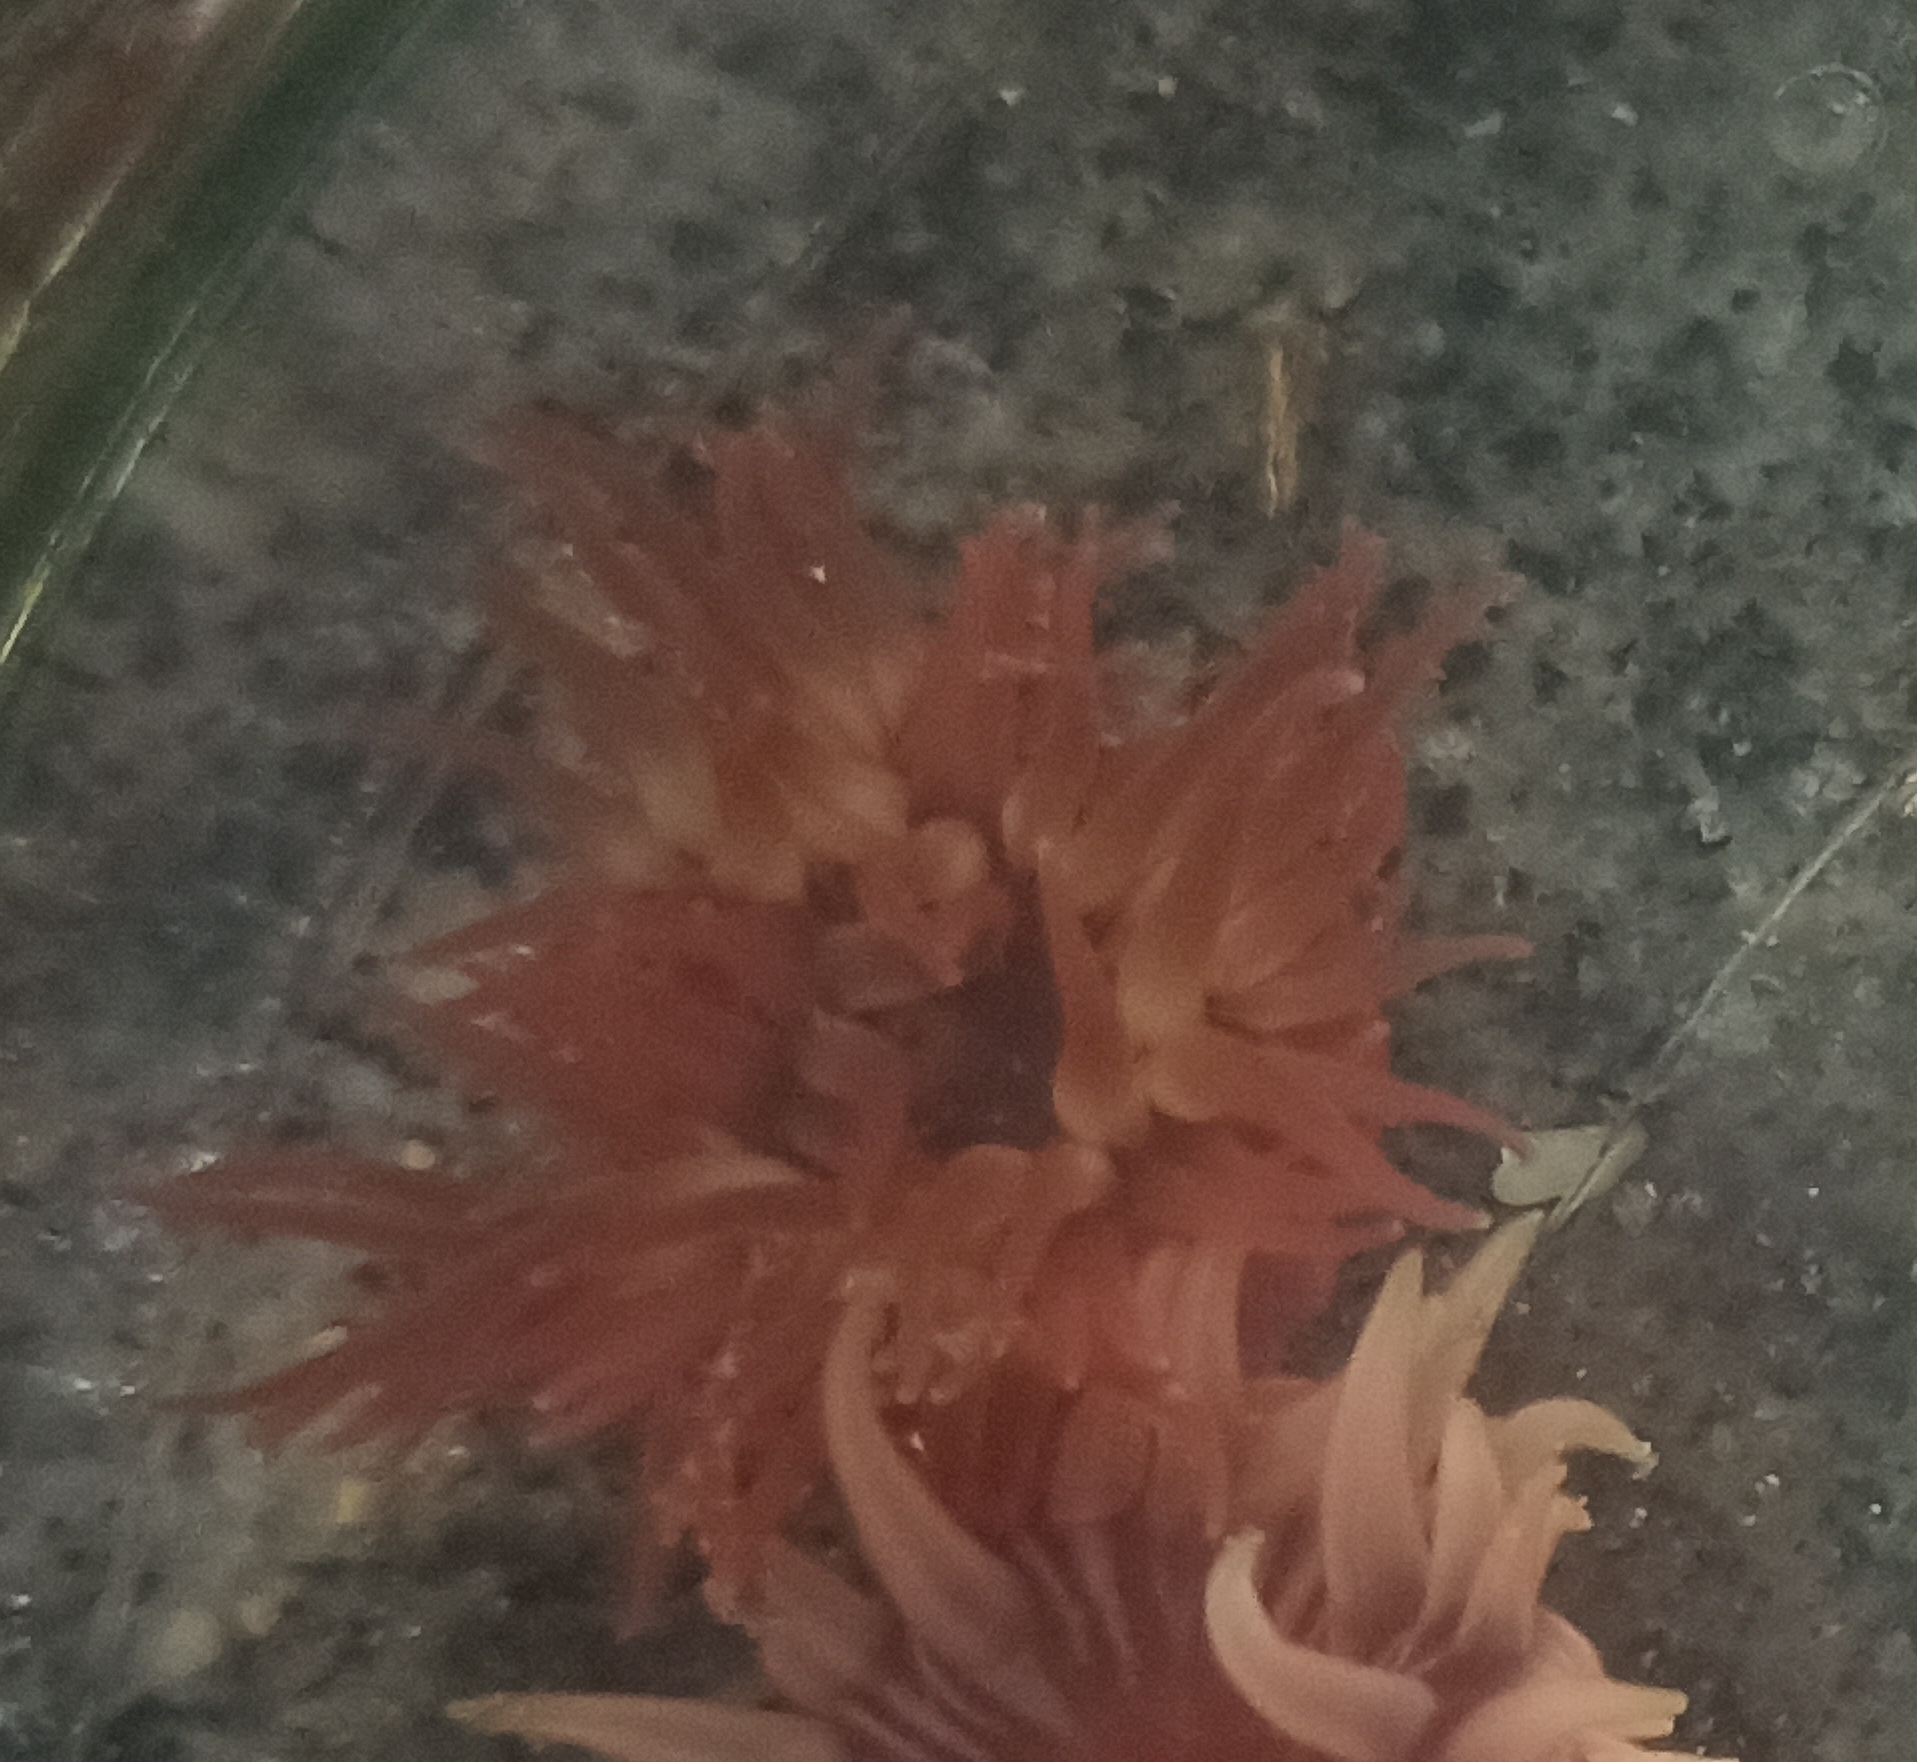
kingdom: Animalia
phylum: Cnidaria
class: Anthozoa
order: Actiniaria
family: Actiniidae
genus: Anemonia
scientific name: Anemonia sargassensis
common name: Sargassum anemone
